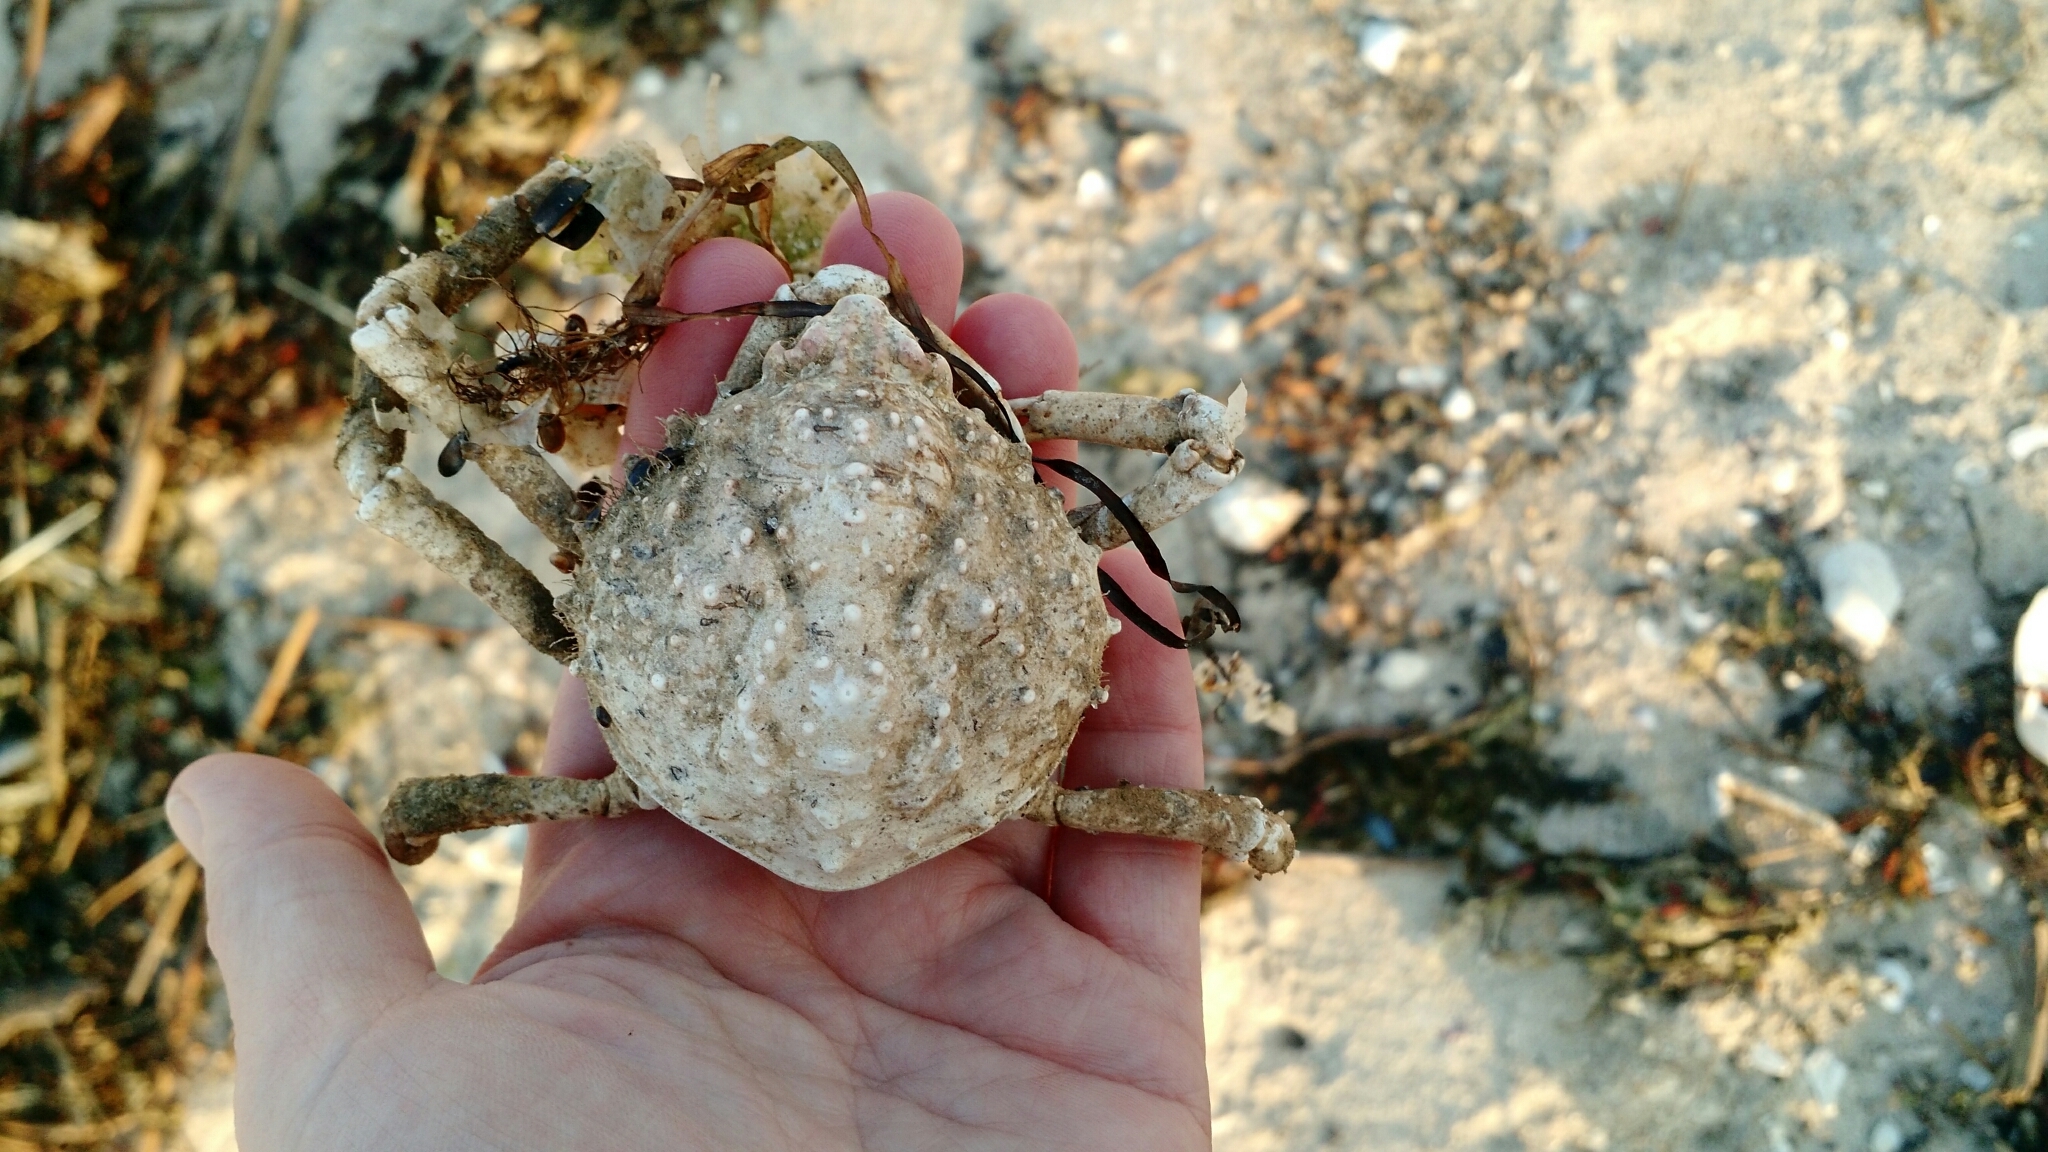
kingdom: Animalia
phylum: Arthropoda
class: Malacostraca
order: Decapoda
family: Epialtidae
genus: Libinia
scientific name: Libinia emarginata
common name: Common spider crab
